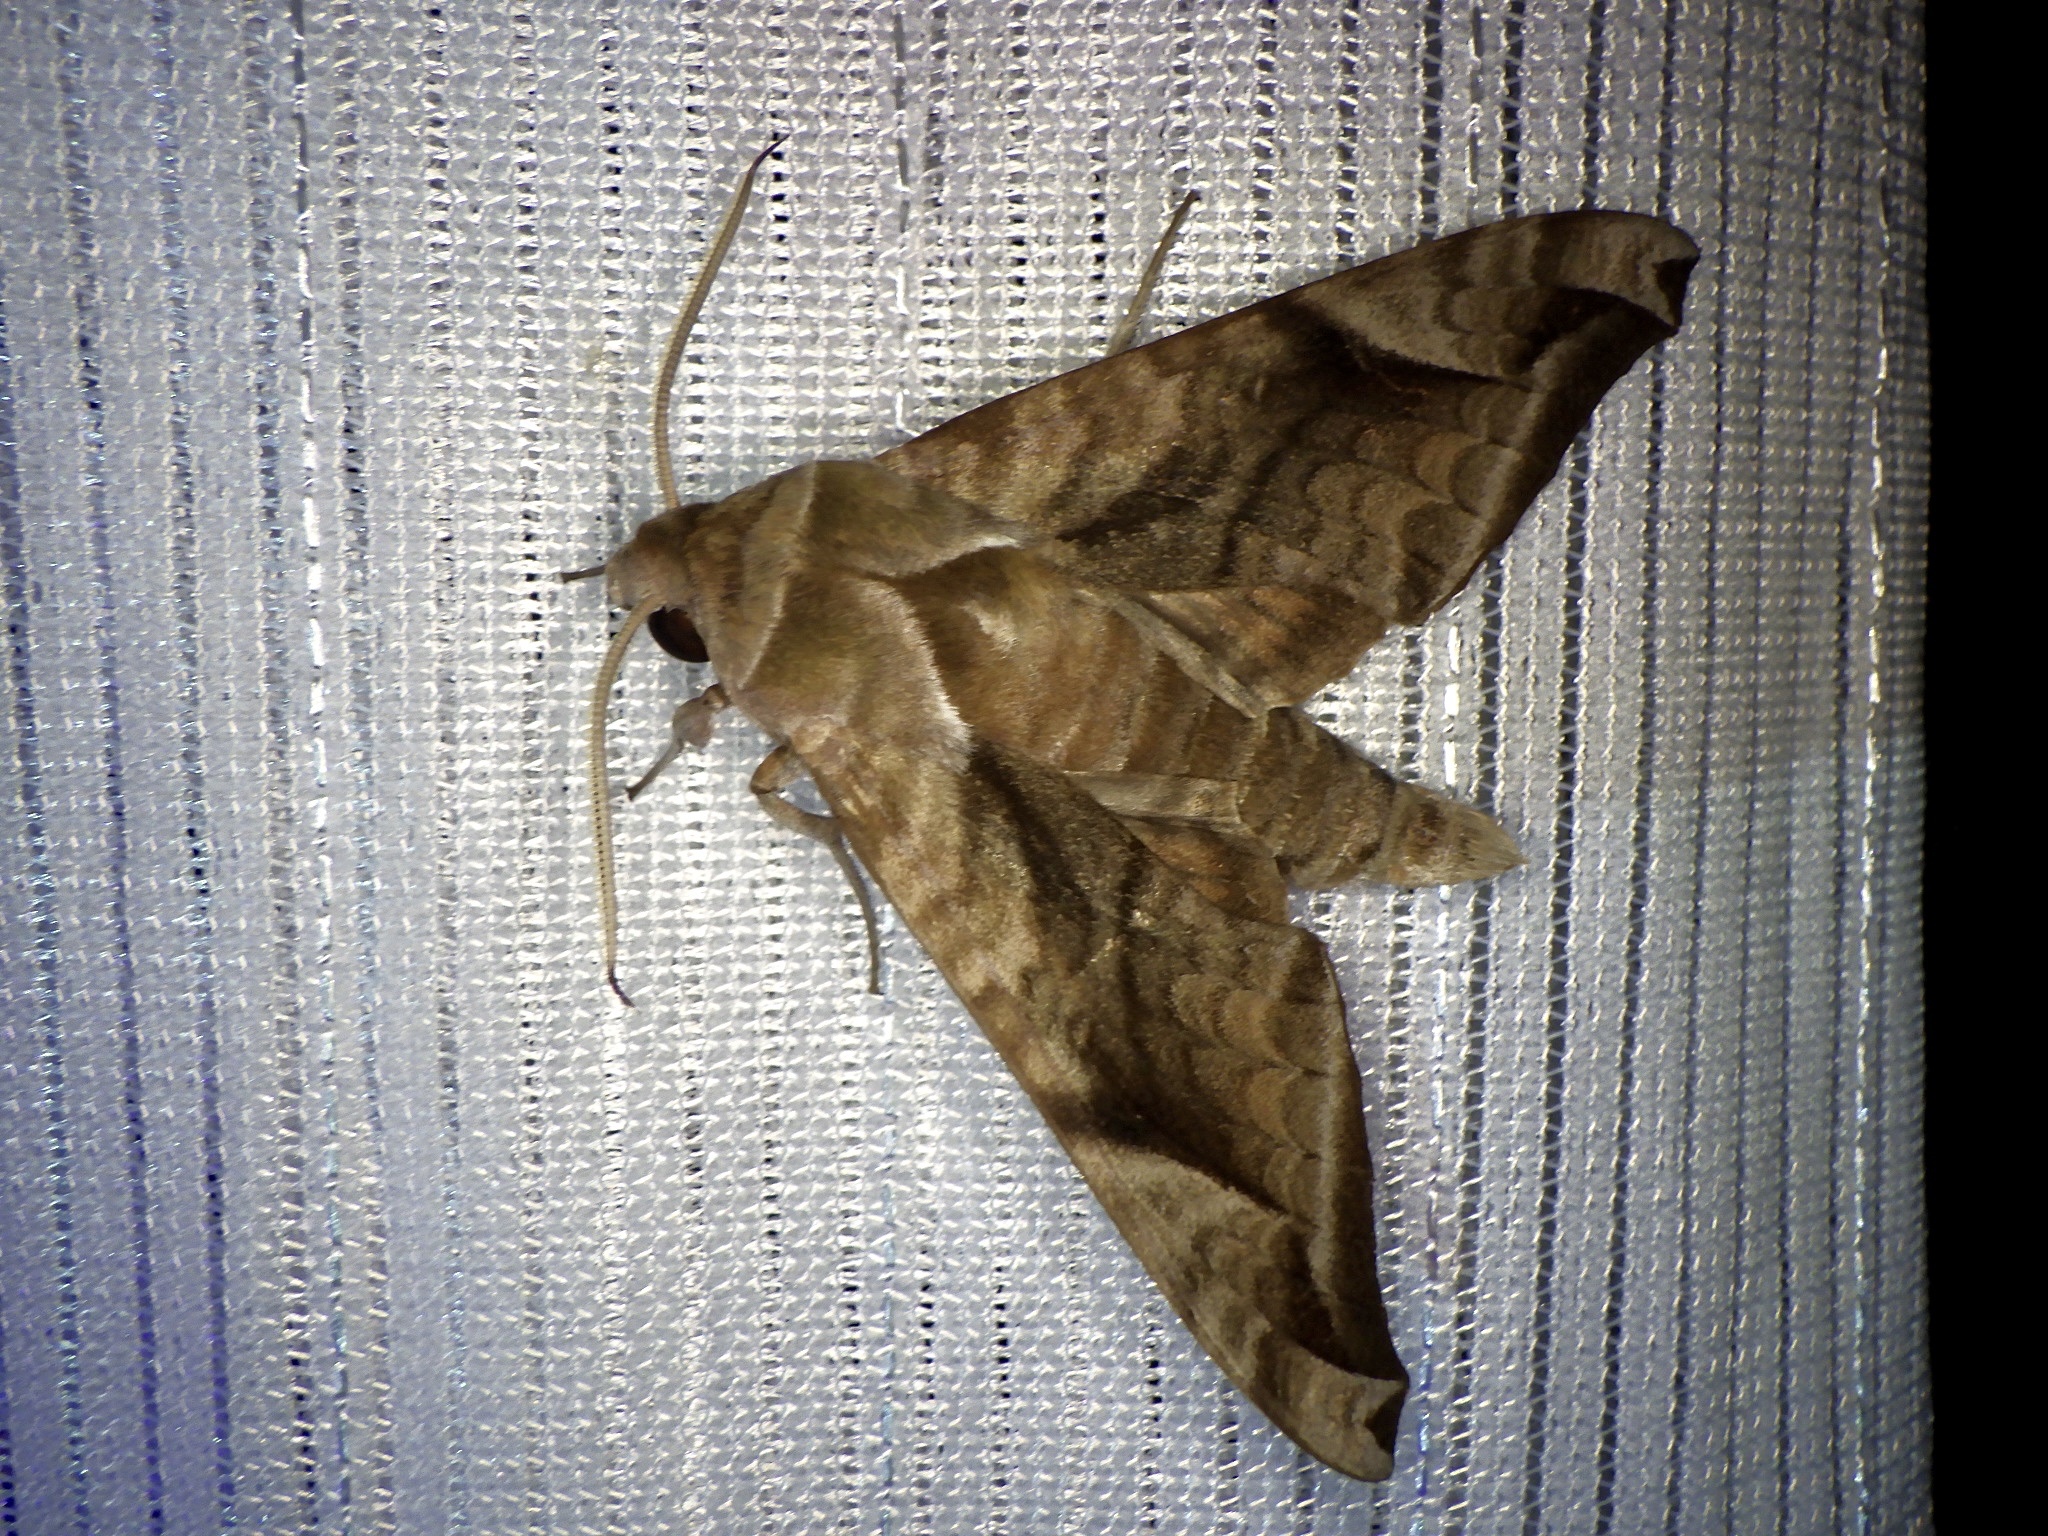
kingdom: Animalia
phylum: Arthropoda
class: Insecta
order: Lepidoptera
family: Sphingidae
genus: Acosmeryx
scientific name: Acosmeryx naga
